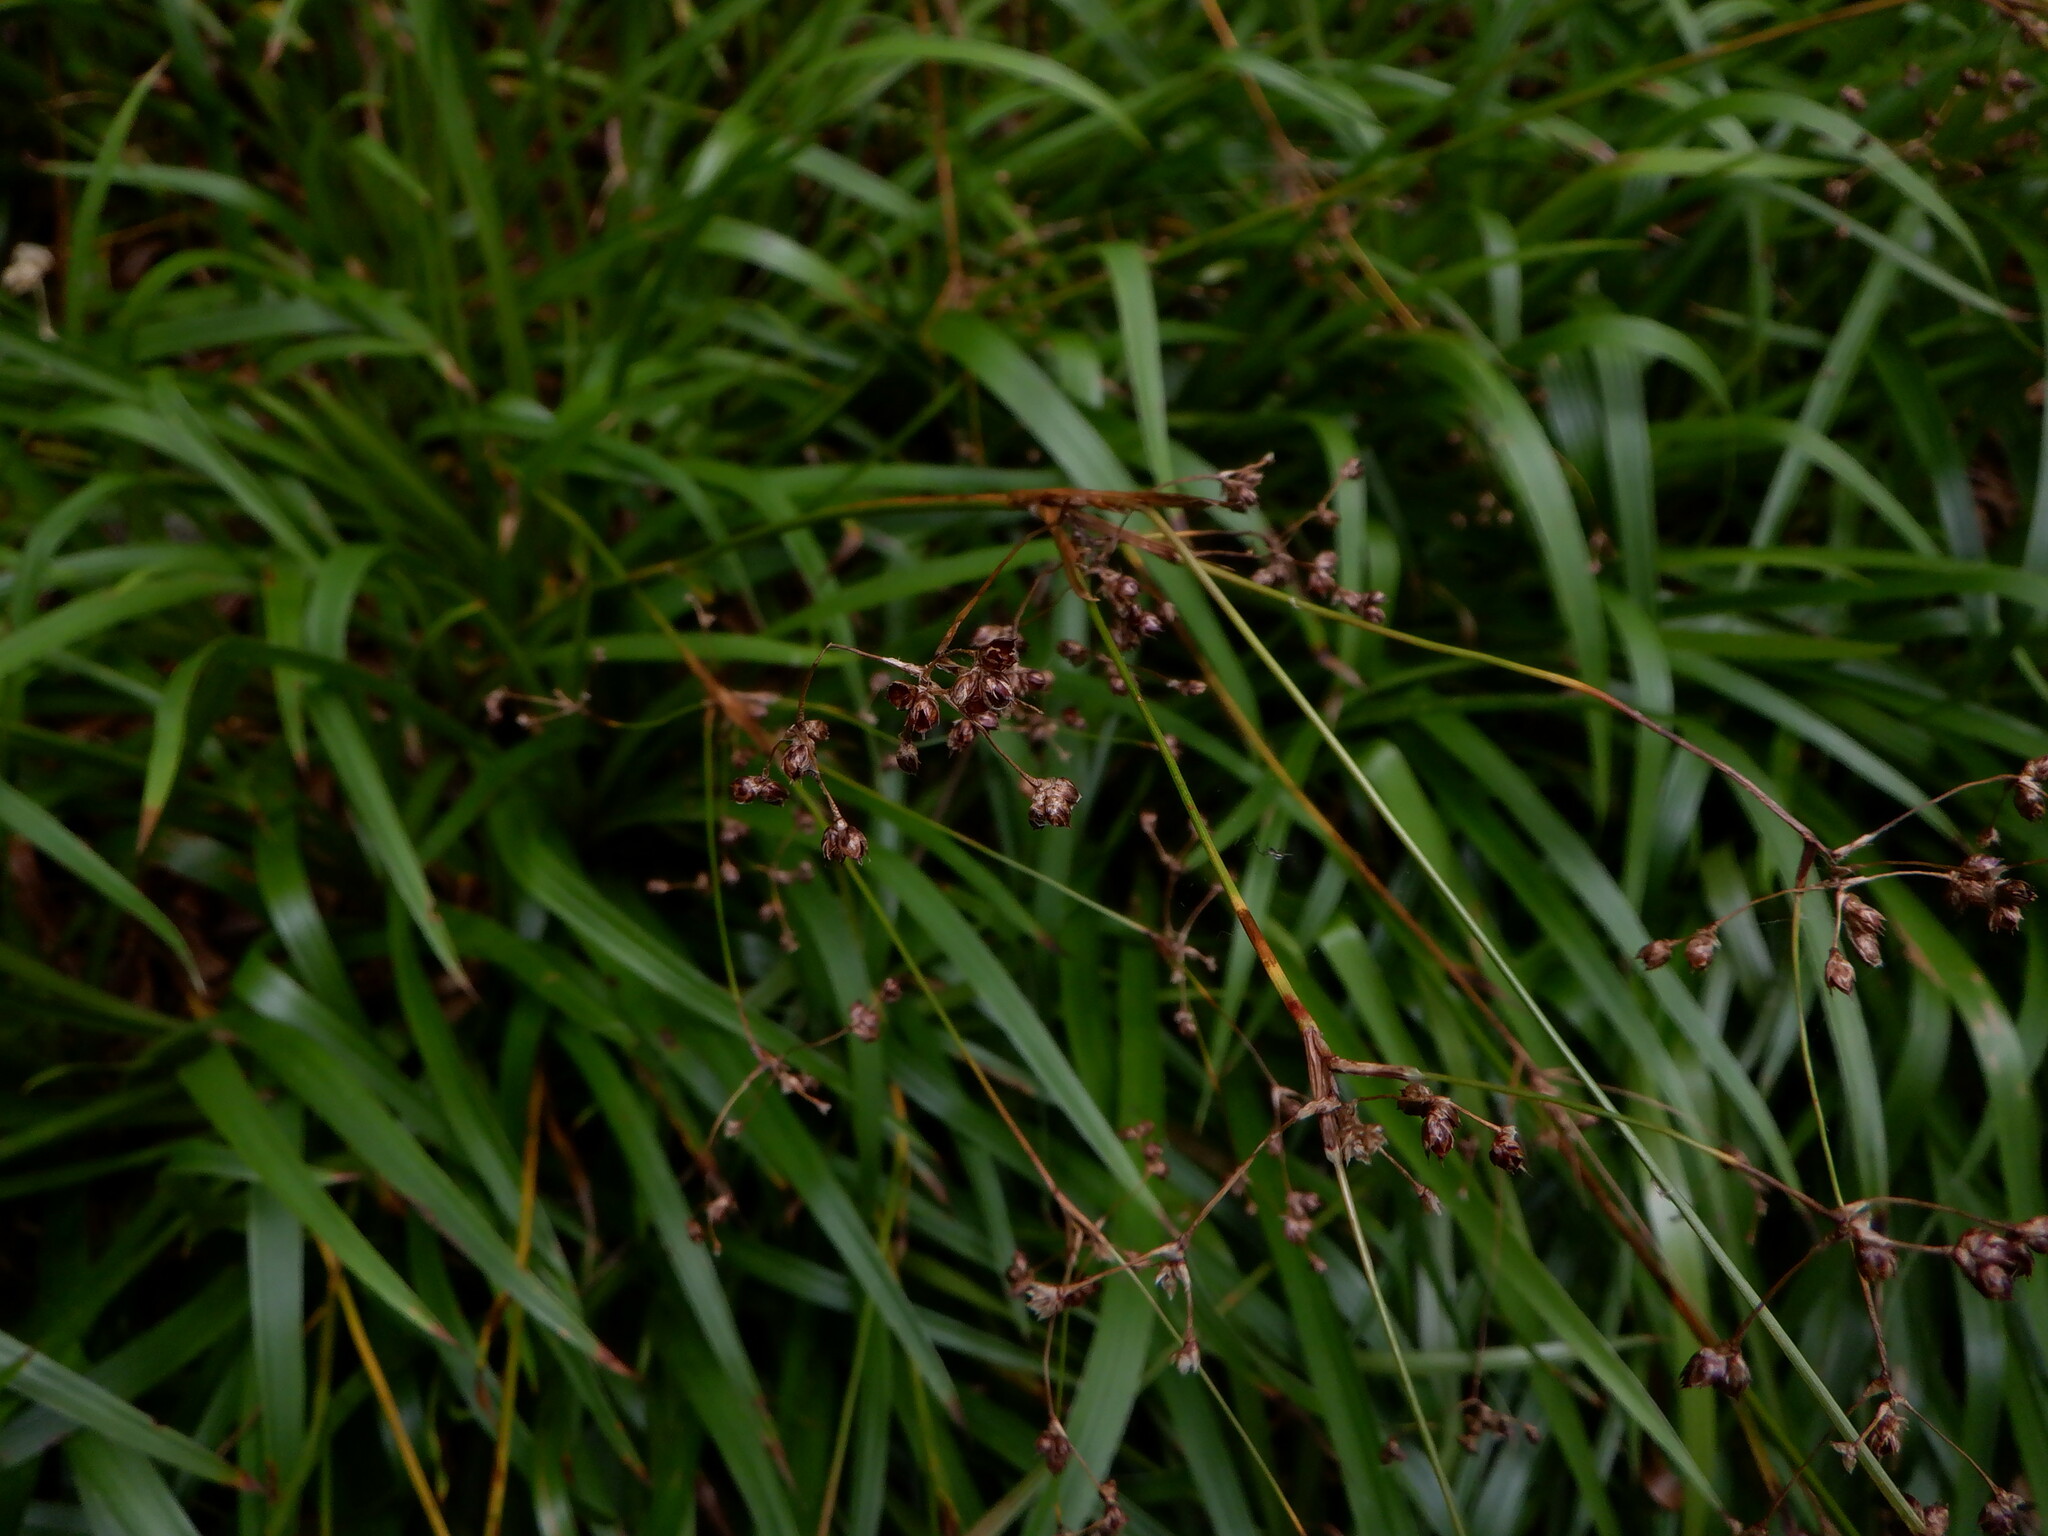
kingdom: Plantae
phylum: Tracheophyta
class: Liliopsida
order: Poales
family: Juncaceae
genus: Luzula
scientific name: Luzula sylvatica
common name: Great wood-rush
